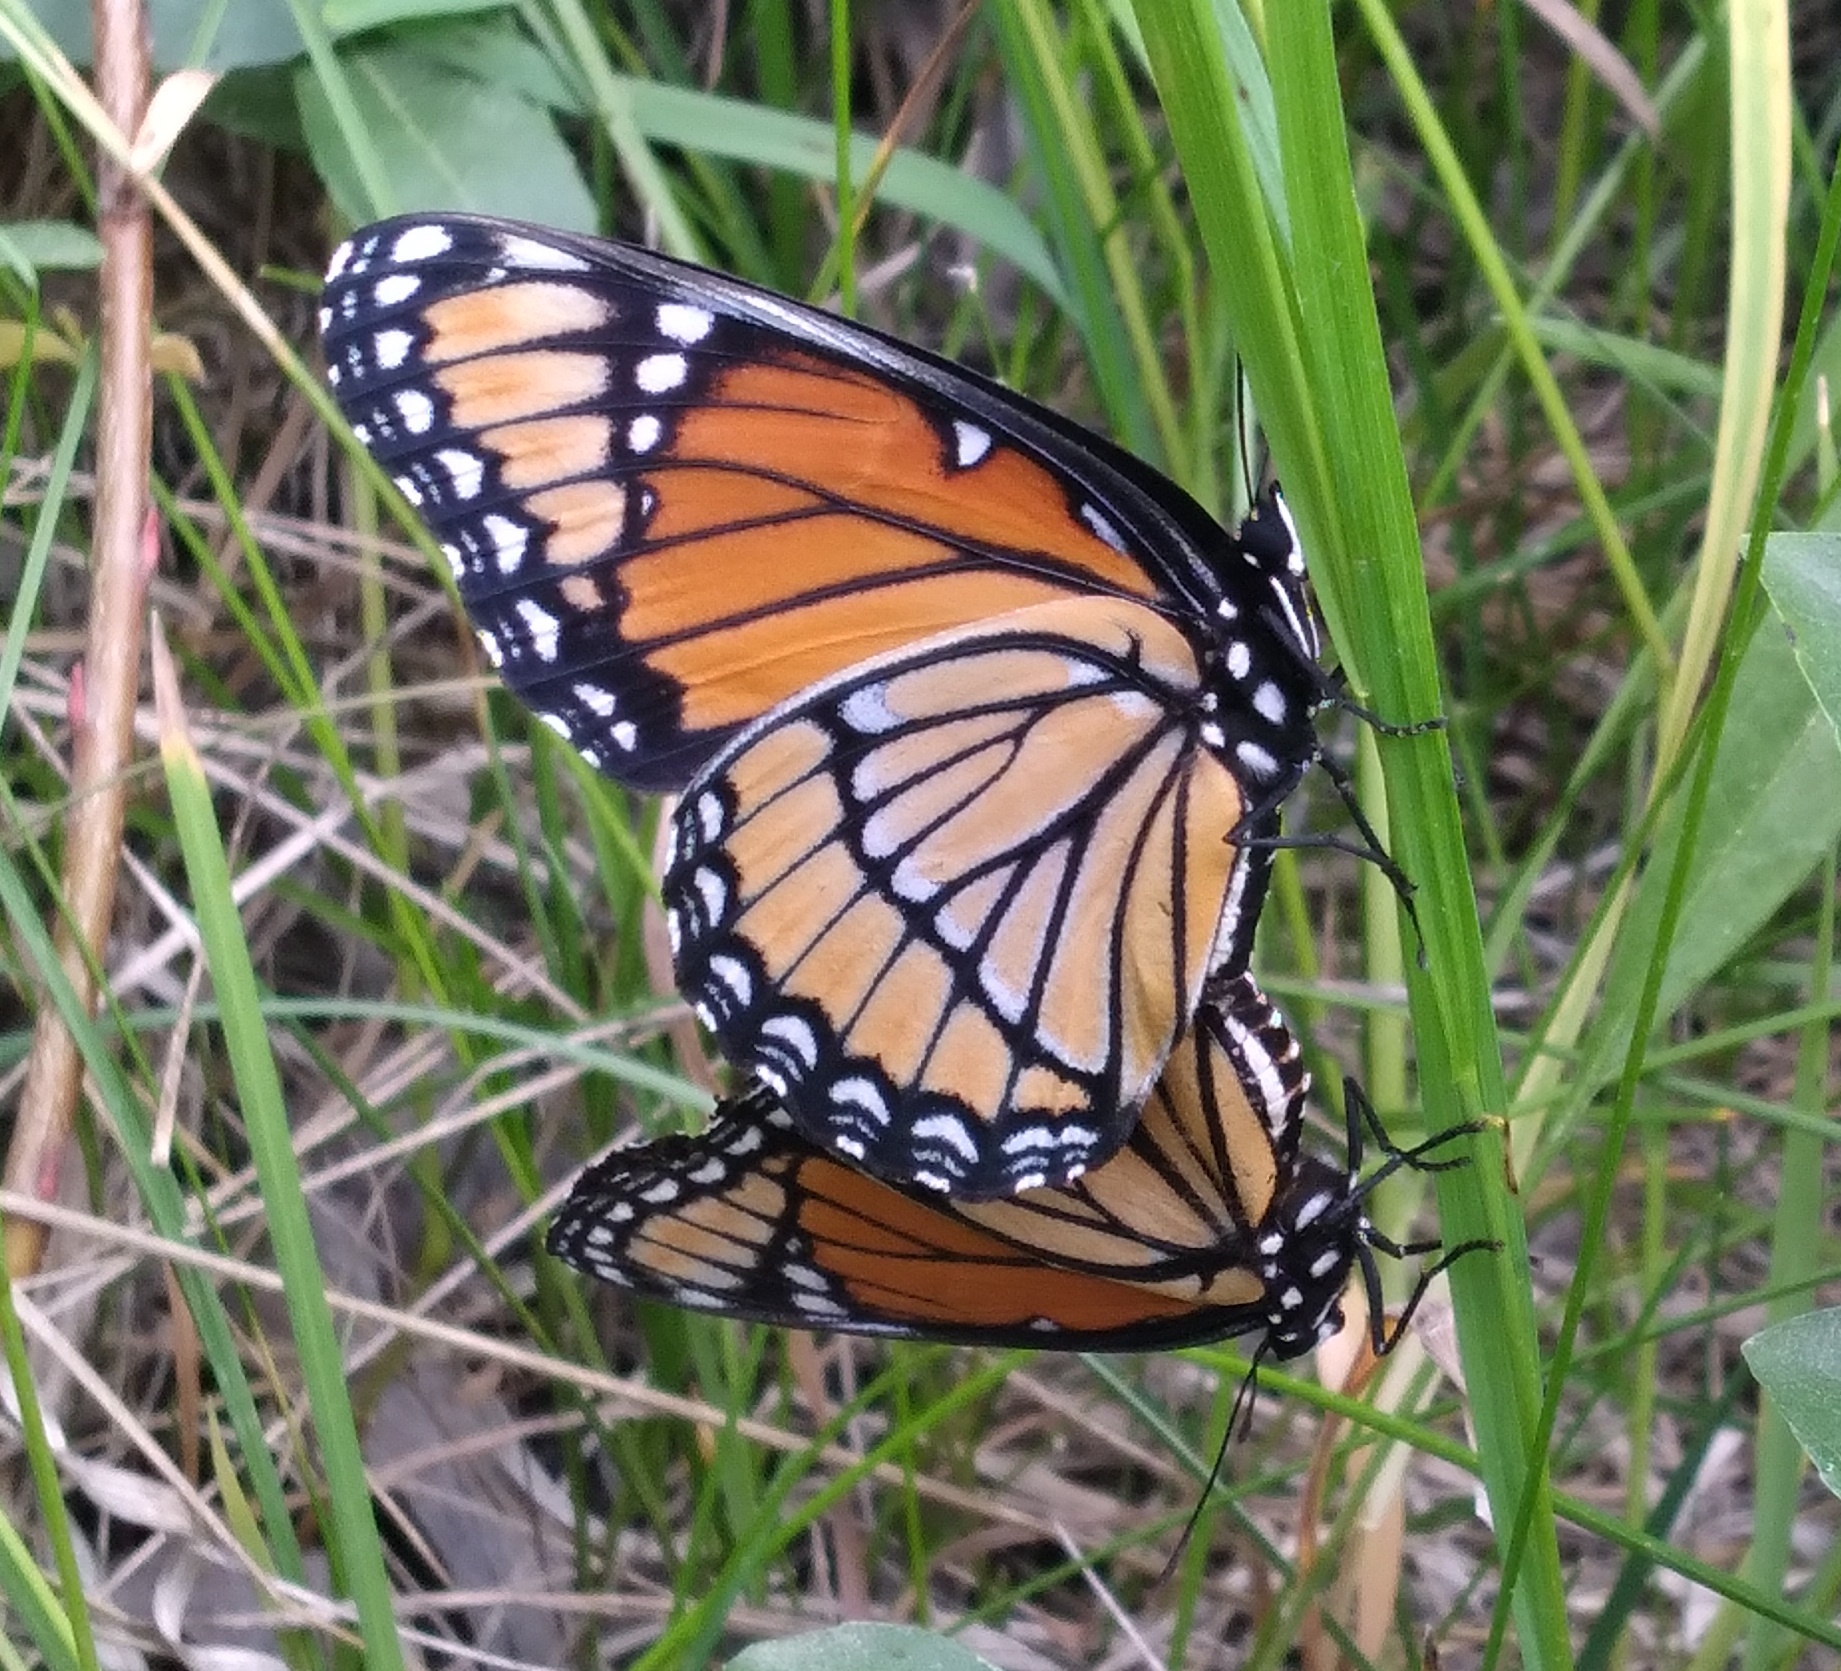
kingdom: Animalia
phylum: Arthropoda
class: Insecta
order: Lepidoptera
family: Nymphalidae
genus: Limenitis
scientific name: Limenitis archippus
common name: Viceroy
